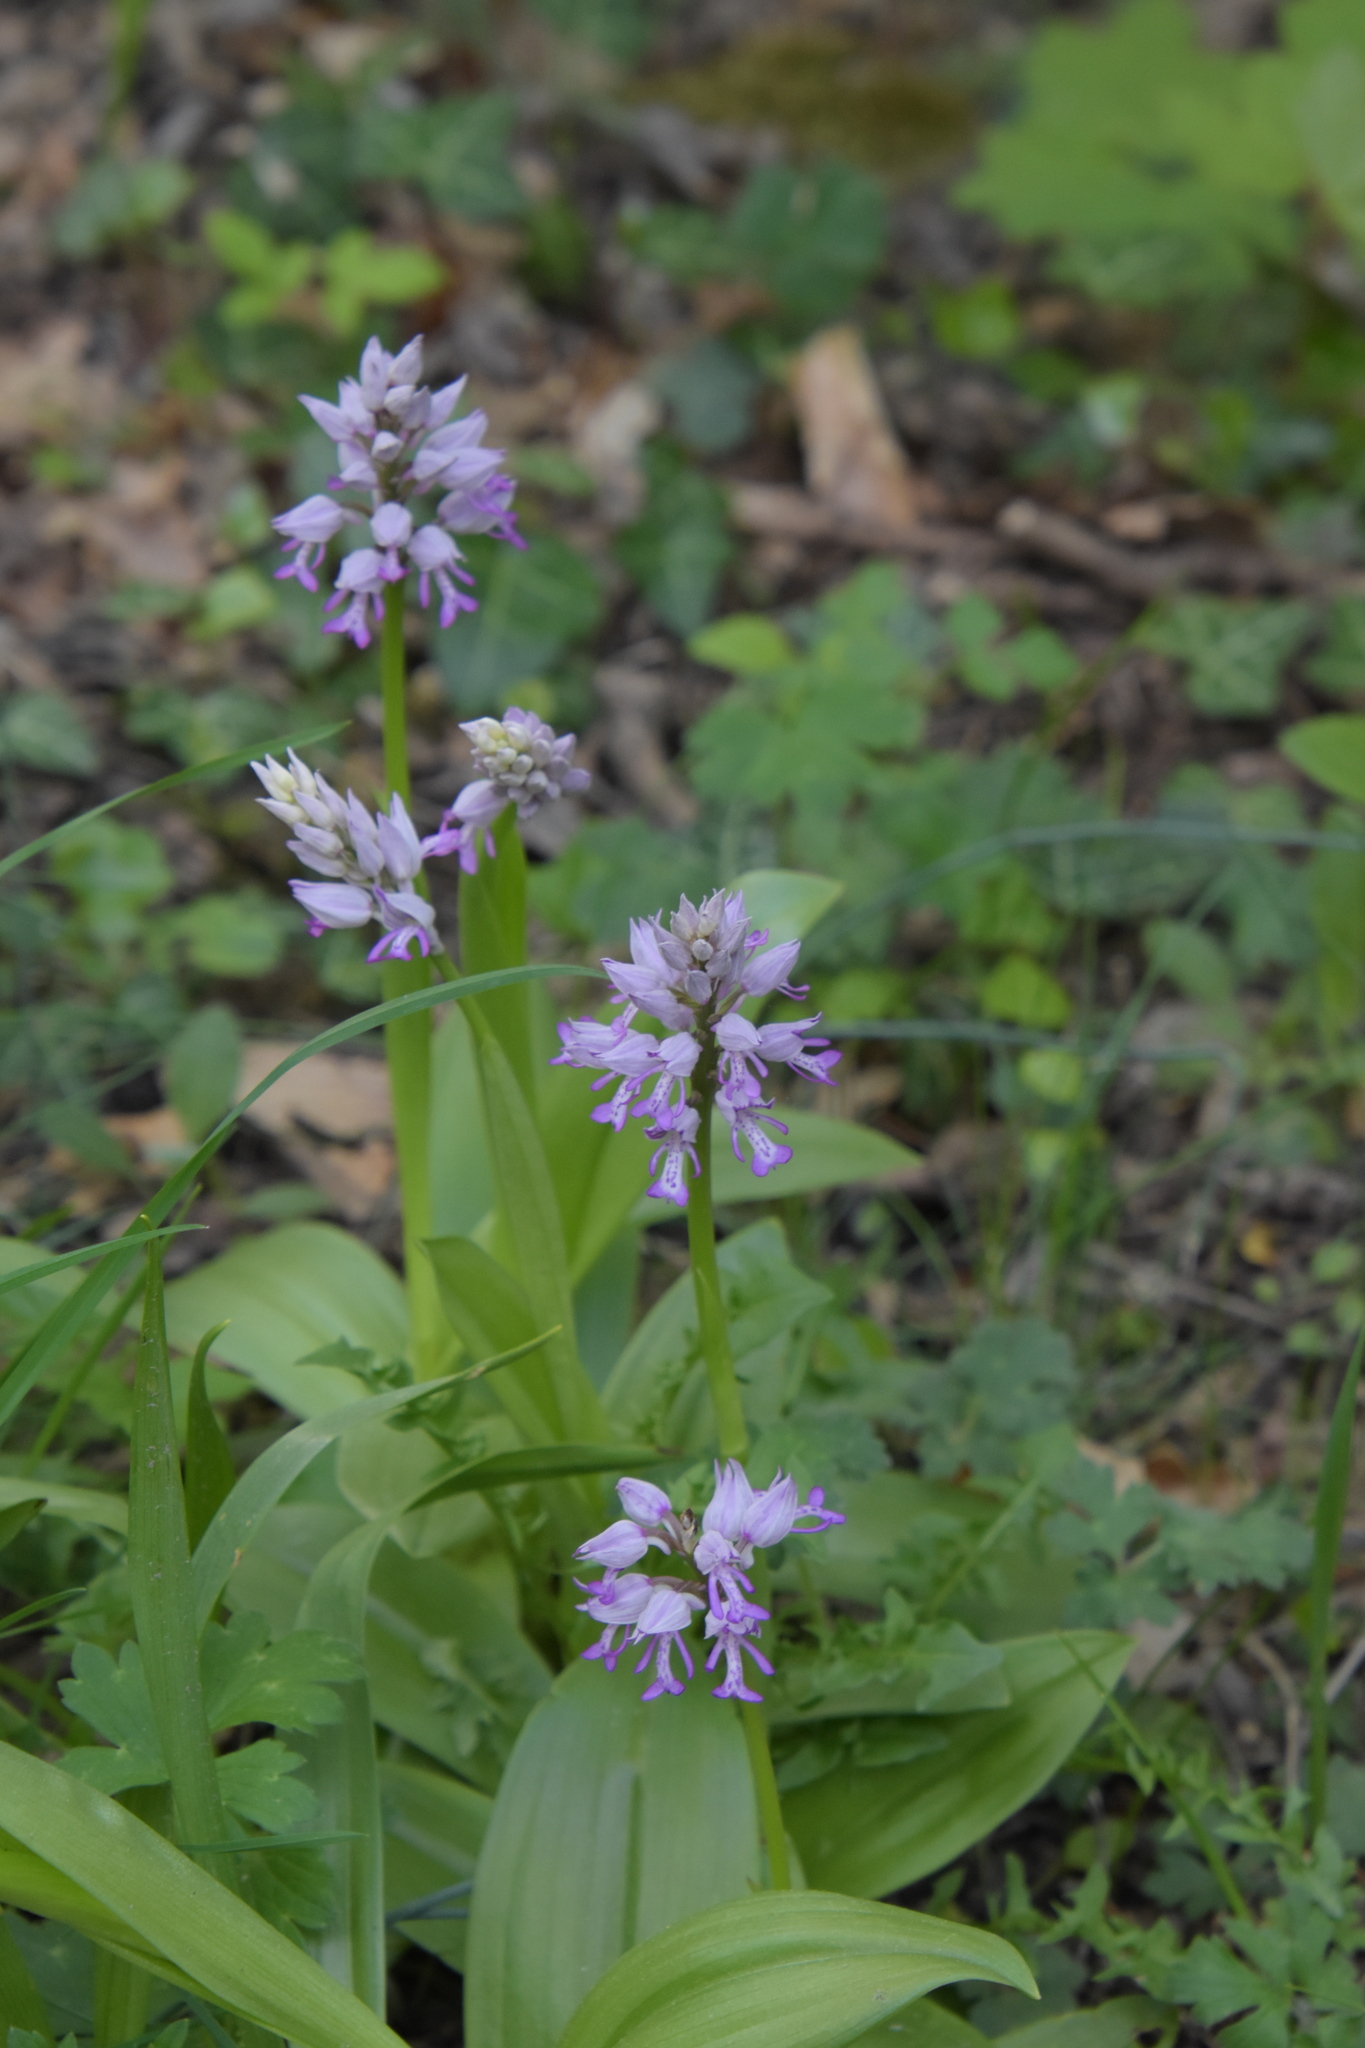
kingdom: Plantae
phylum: Tracheophyta
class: Liliopsida
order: Asparagales
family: Orchidaceae
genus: Orchis
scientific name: Orchis militaris
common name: Military orchid
